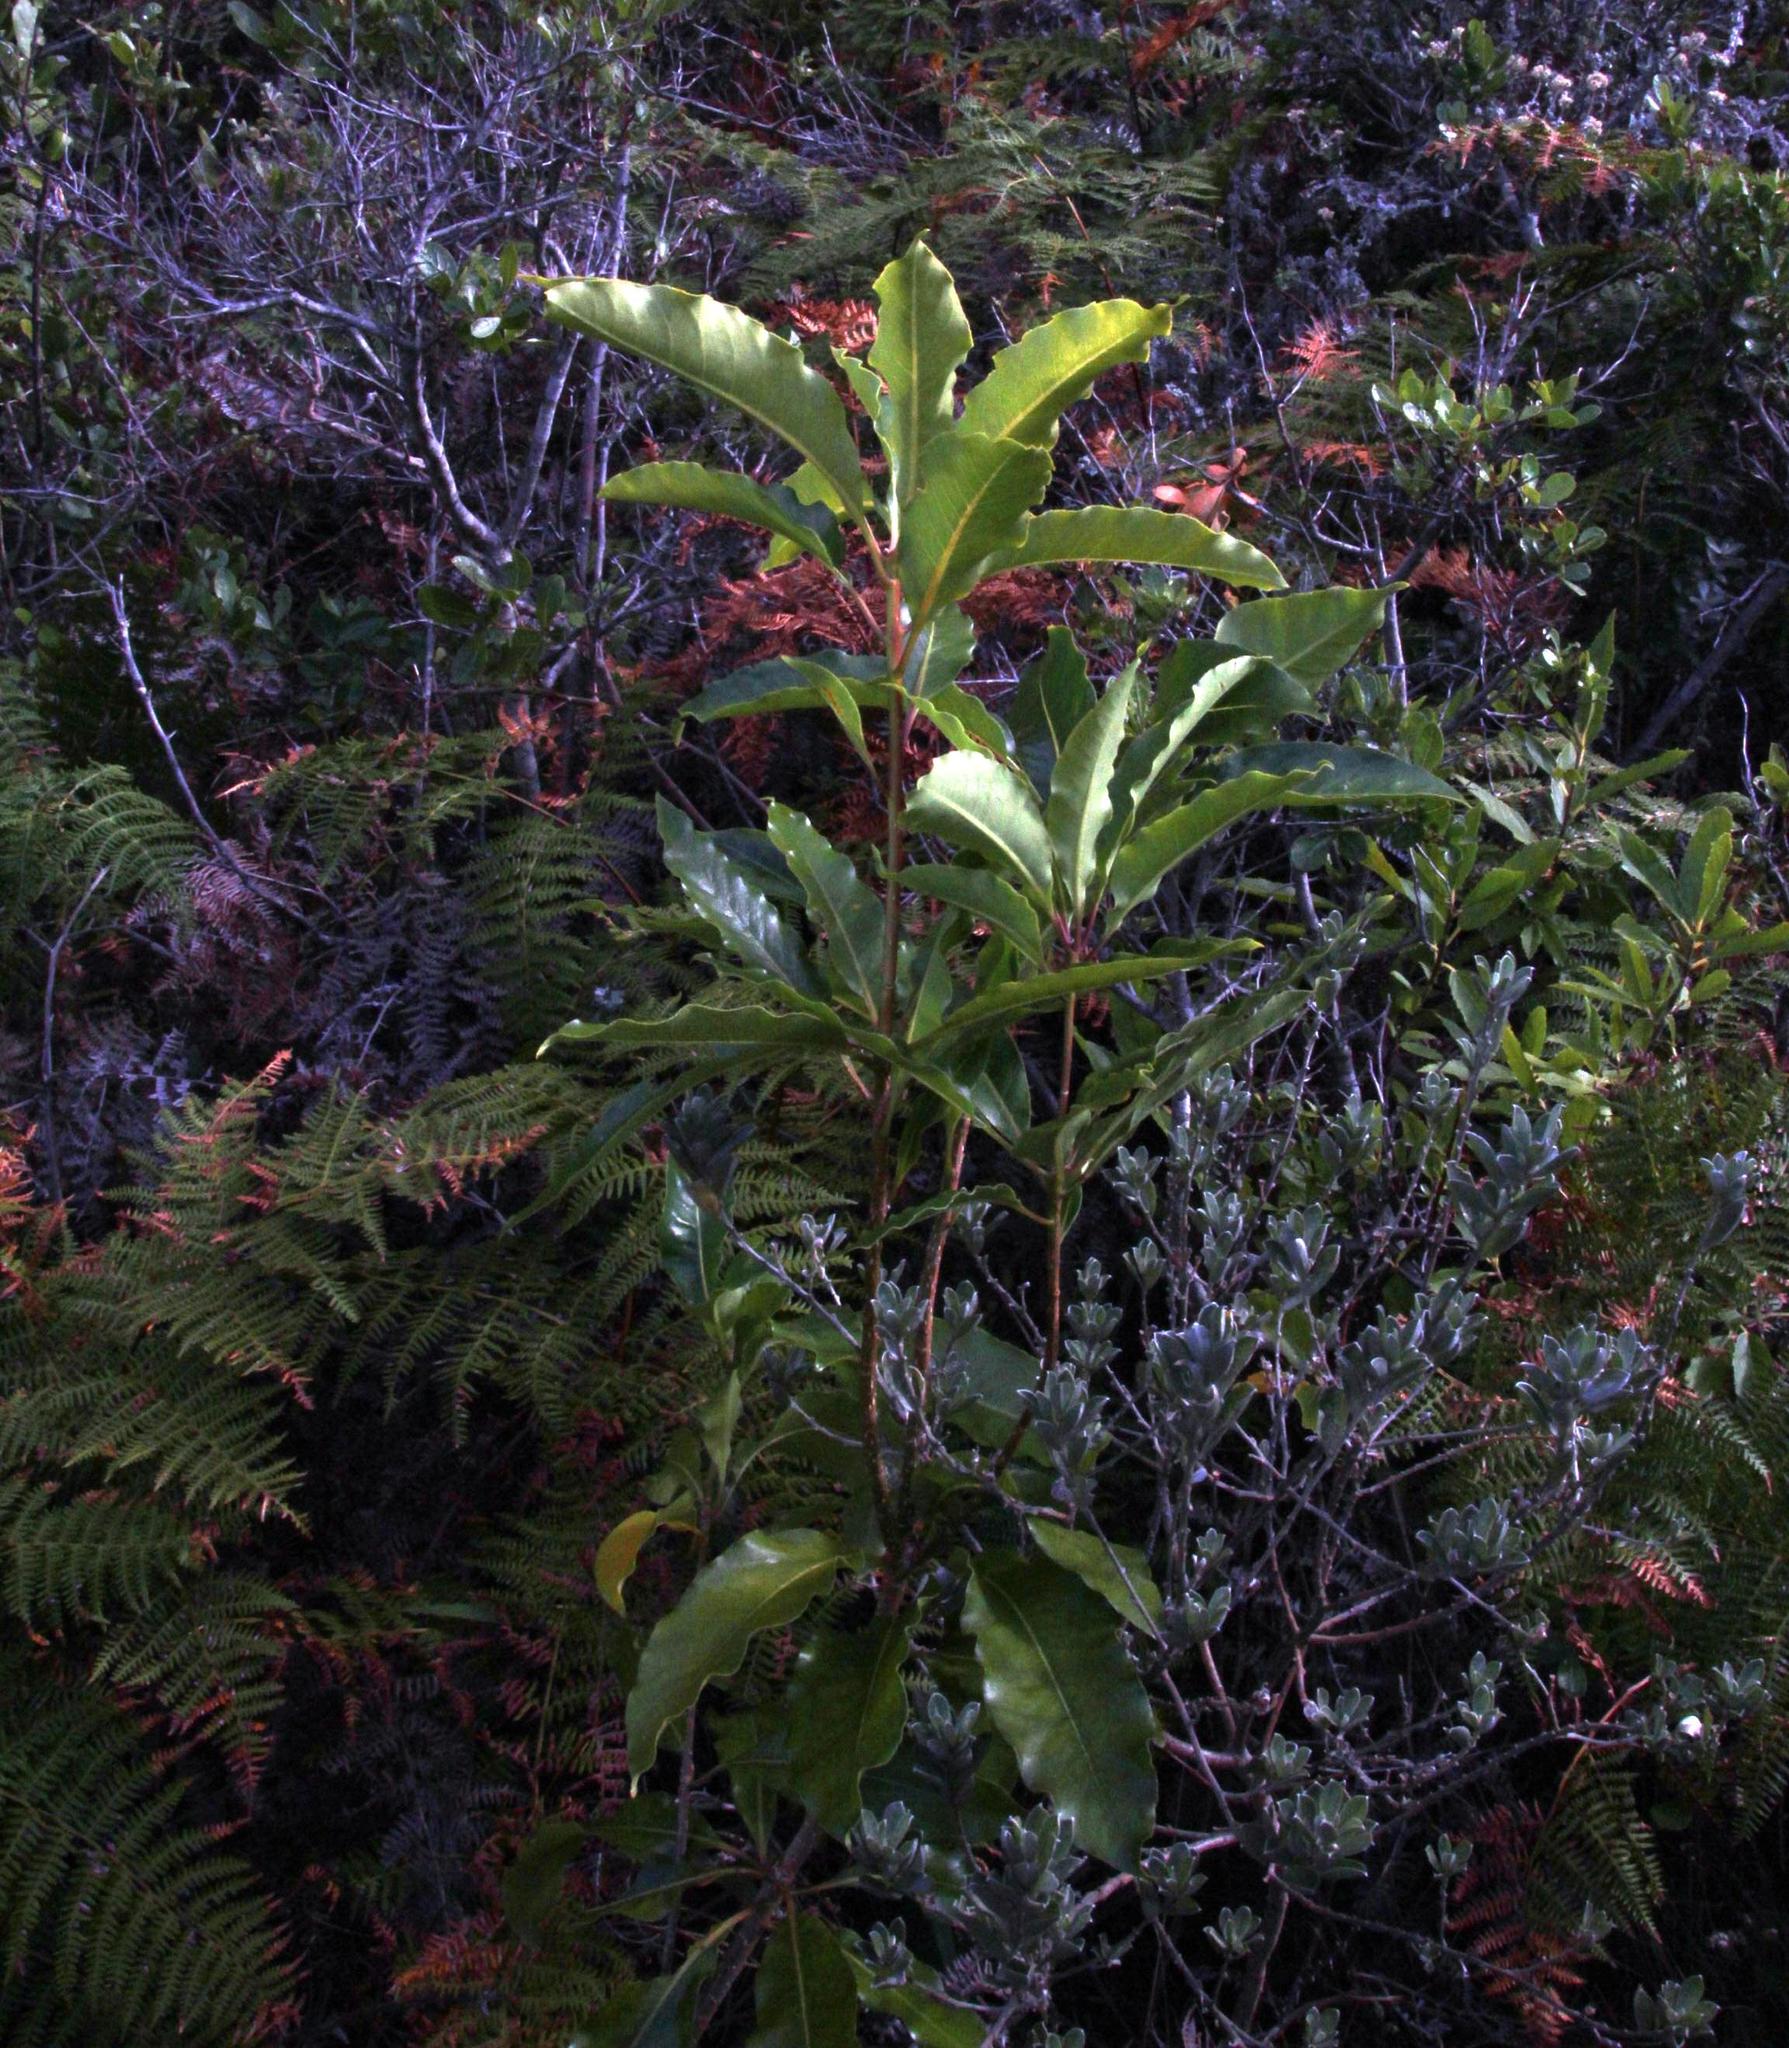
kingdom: Plantae
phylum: Tracheophyta
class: Magnoliopsida
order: Apiales
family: Pittosporaceae
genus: Pittosporum
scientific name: Pittosporum undulatum
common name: Australian cheesewood
